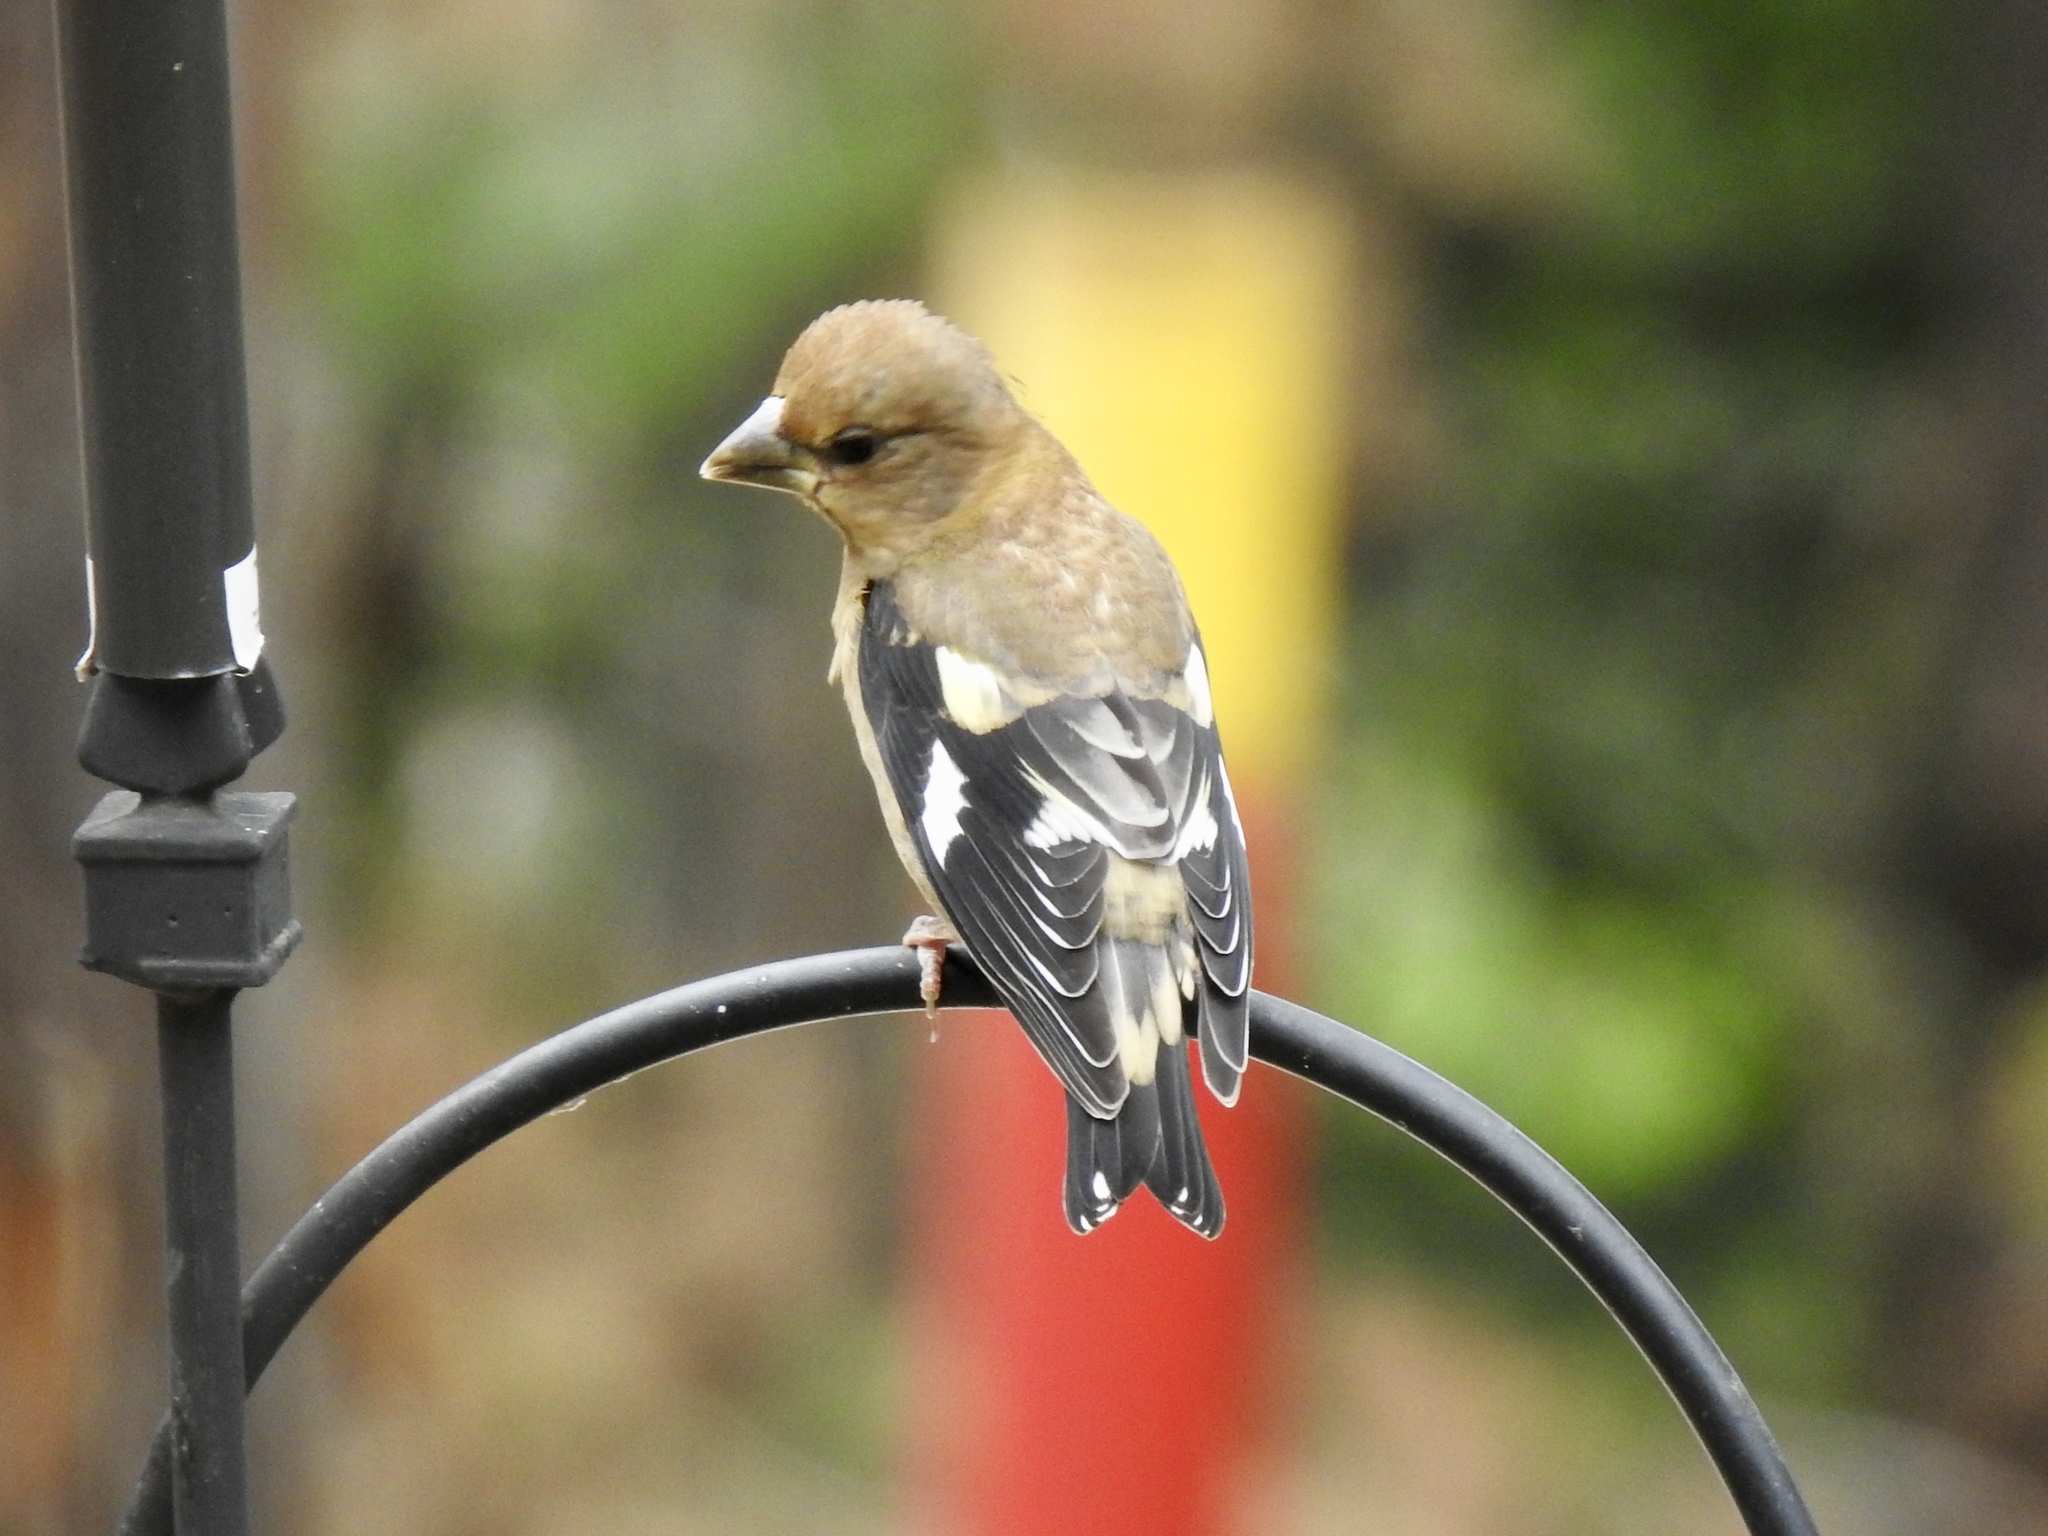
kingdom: Animalia
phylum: Chordata
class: Aves
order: Passeriformes
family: Fringillidae
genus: Hesperiphona
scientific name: Hesperiphona vespertina
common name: Evening grosbeak
